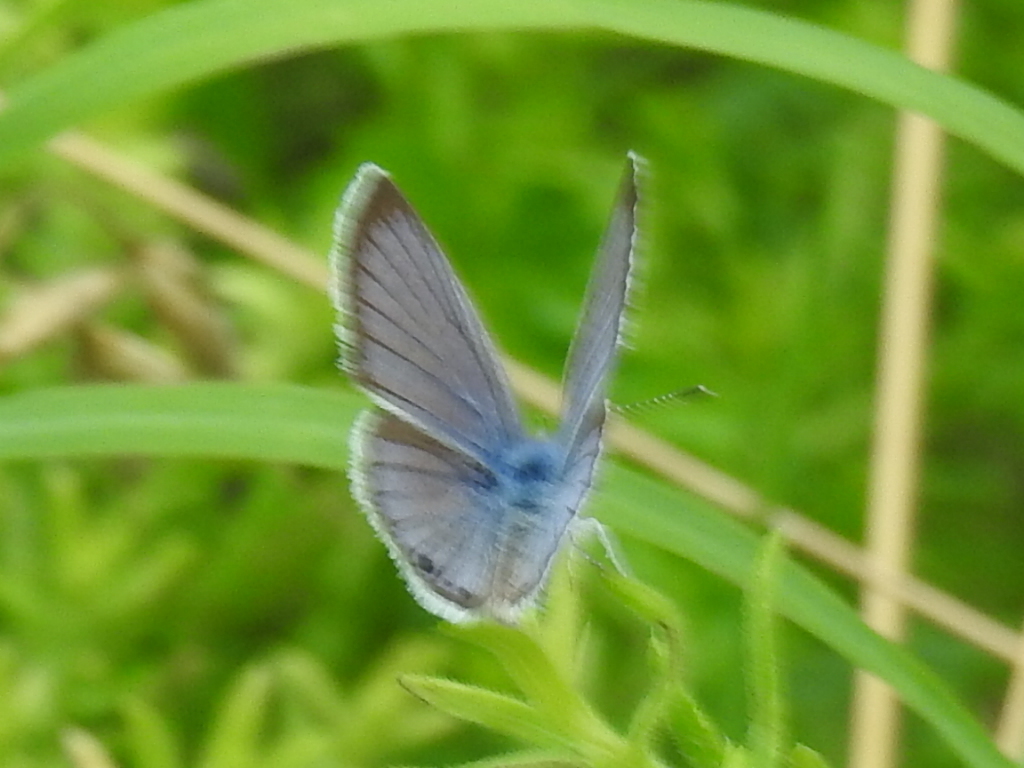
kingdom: Animalia
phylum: Arthropoda
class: Insecta
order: Lepidoptera
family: Lycaenidae
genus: Echinargus
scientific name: Echinargus isola
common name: Reakirt's blue
